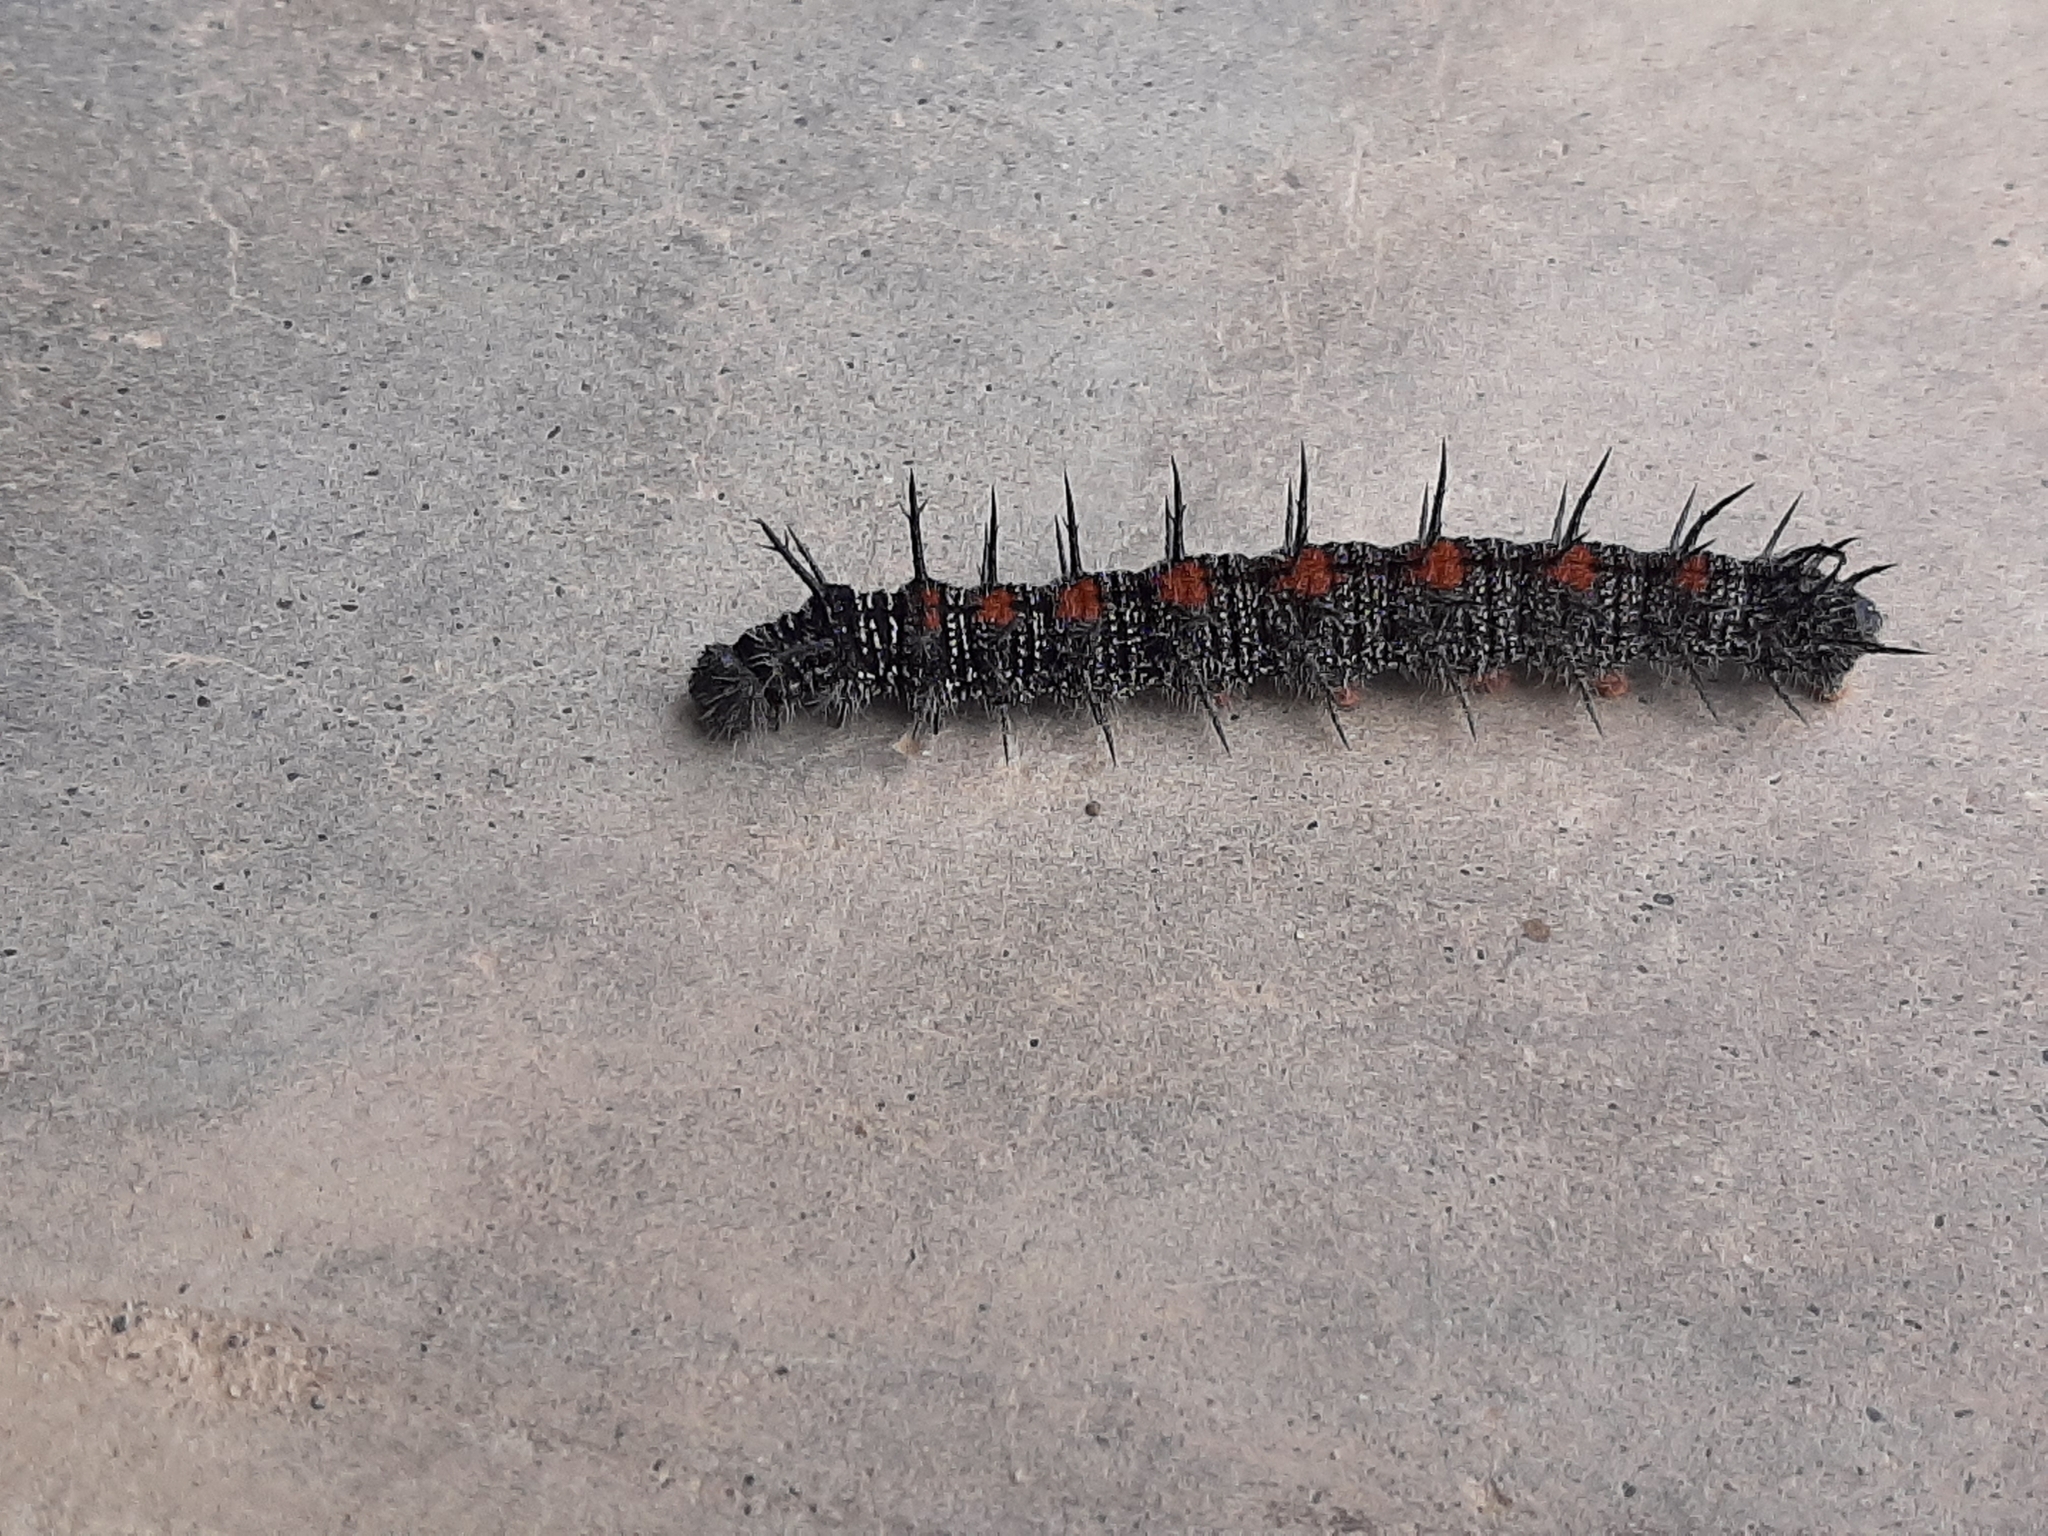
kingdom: Animalia
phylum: Arthropoda
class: Insecta
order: Lepidoptera
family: Nymphalidae
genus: Nymphalis
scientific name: Nymphalis antiopa
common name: Camberwell beauty
